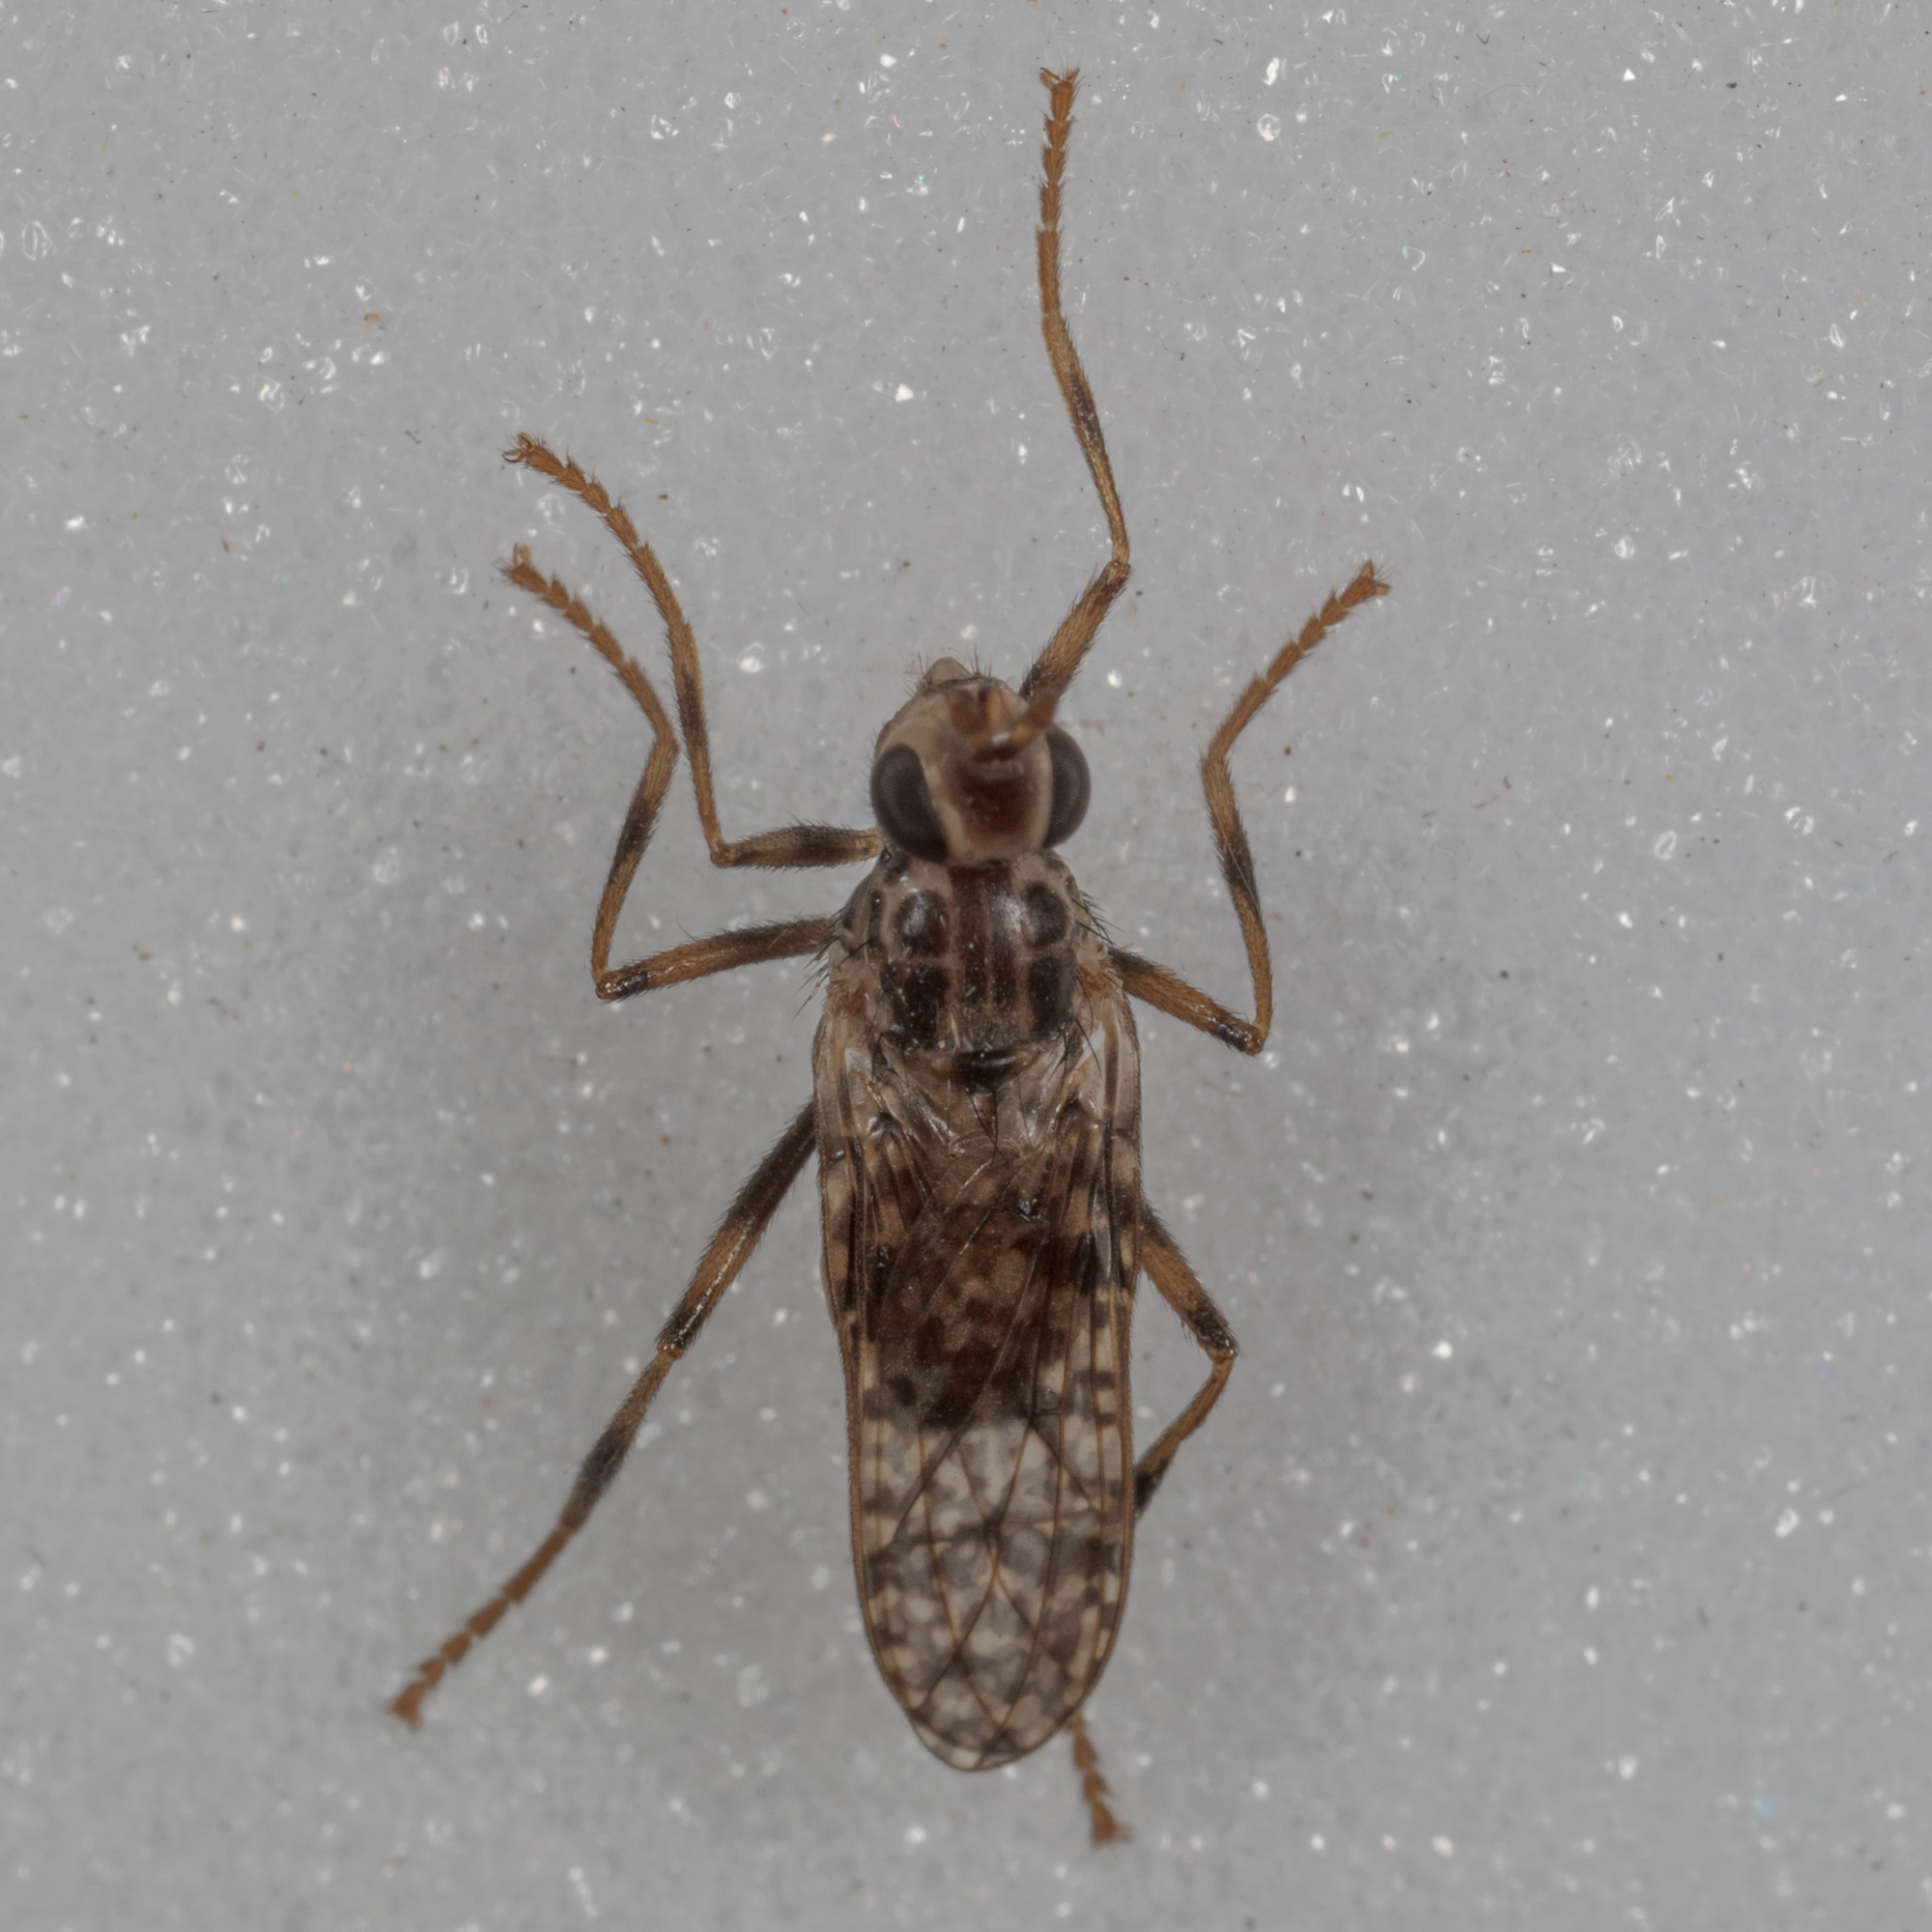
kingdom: Animalia
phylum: Arthropoda
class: Insecta
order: Diptera
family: Pyrgotidae
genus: Boreothrinax
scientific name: Boreothrinax
